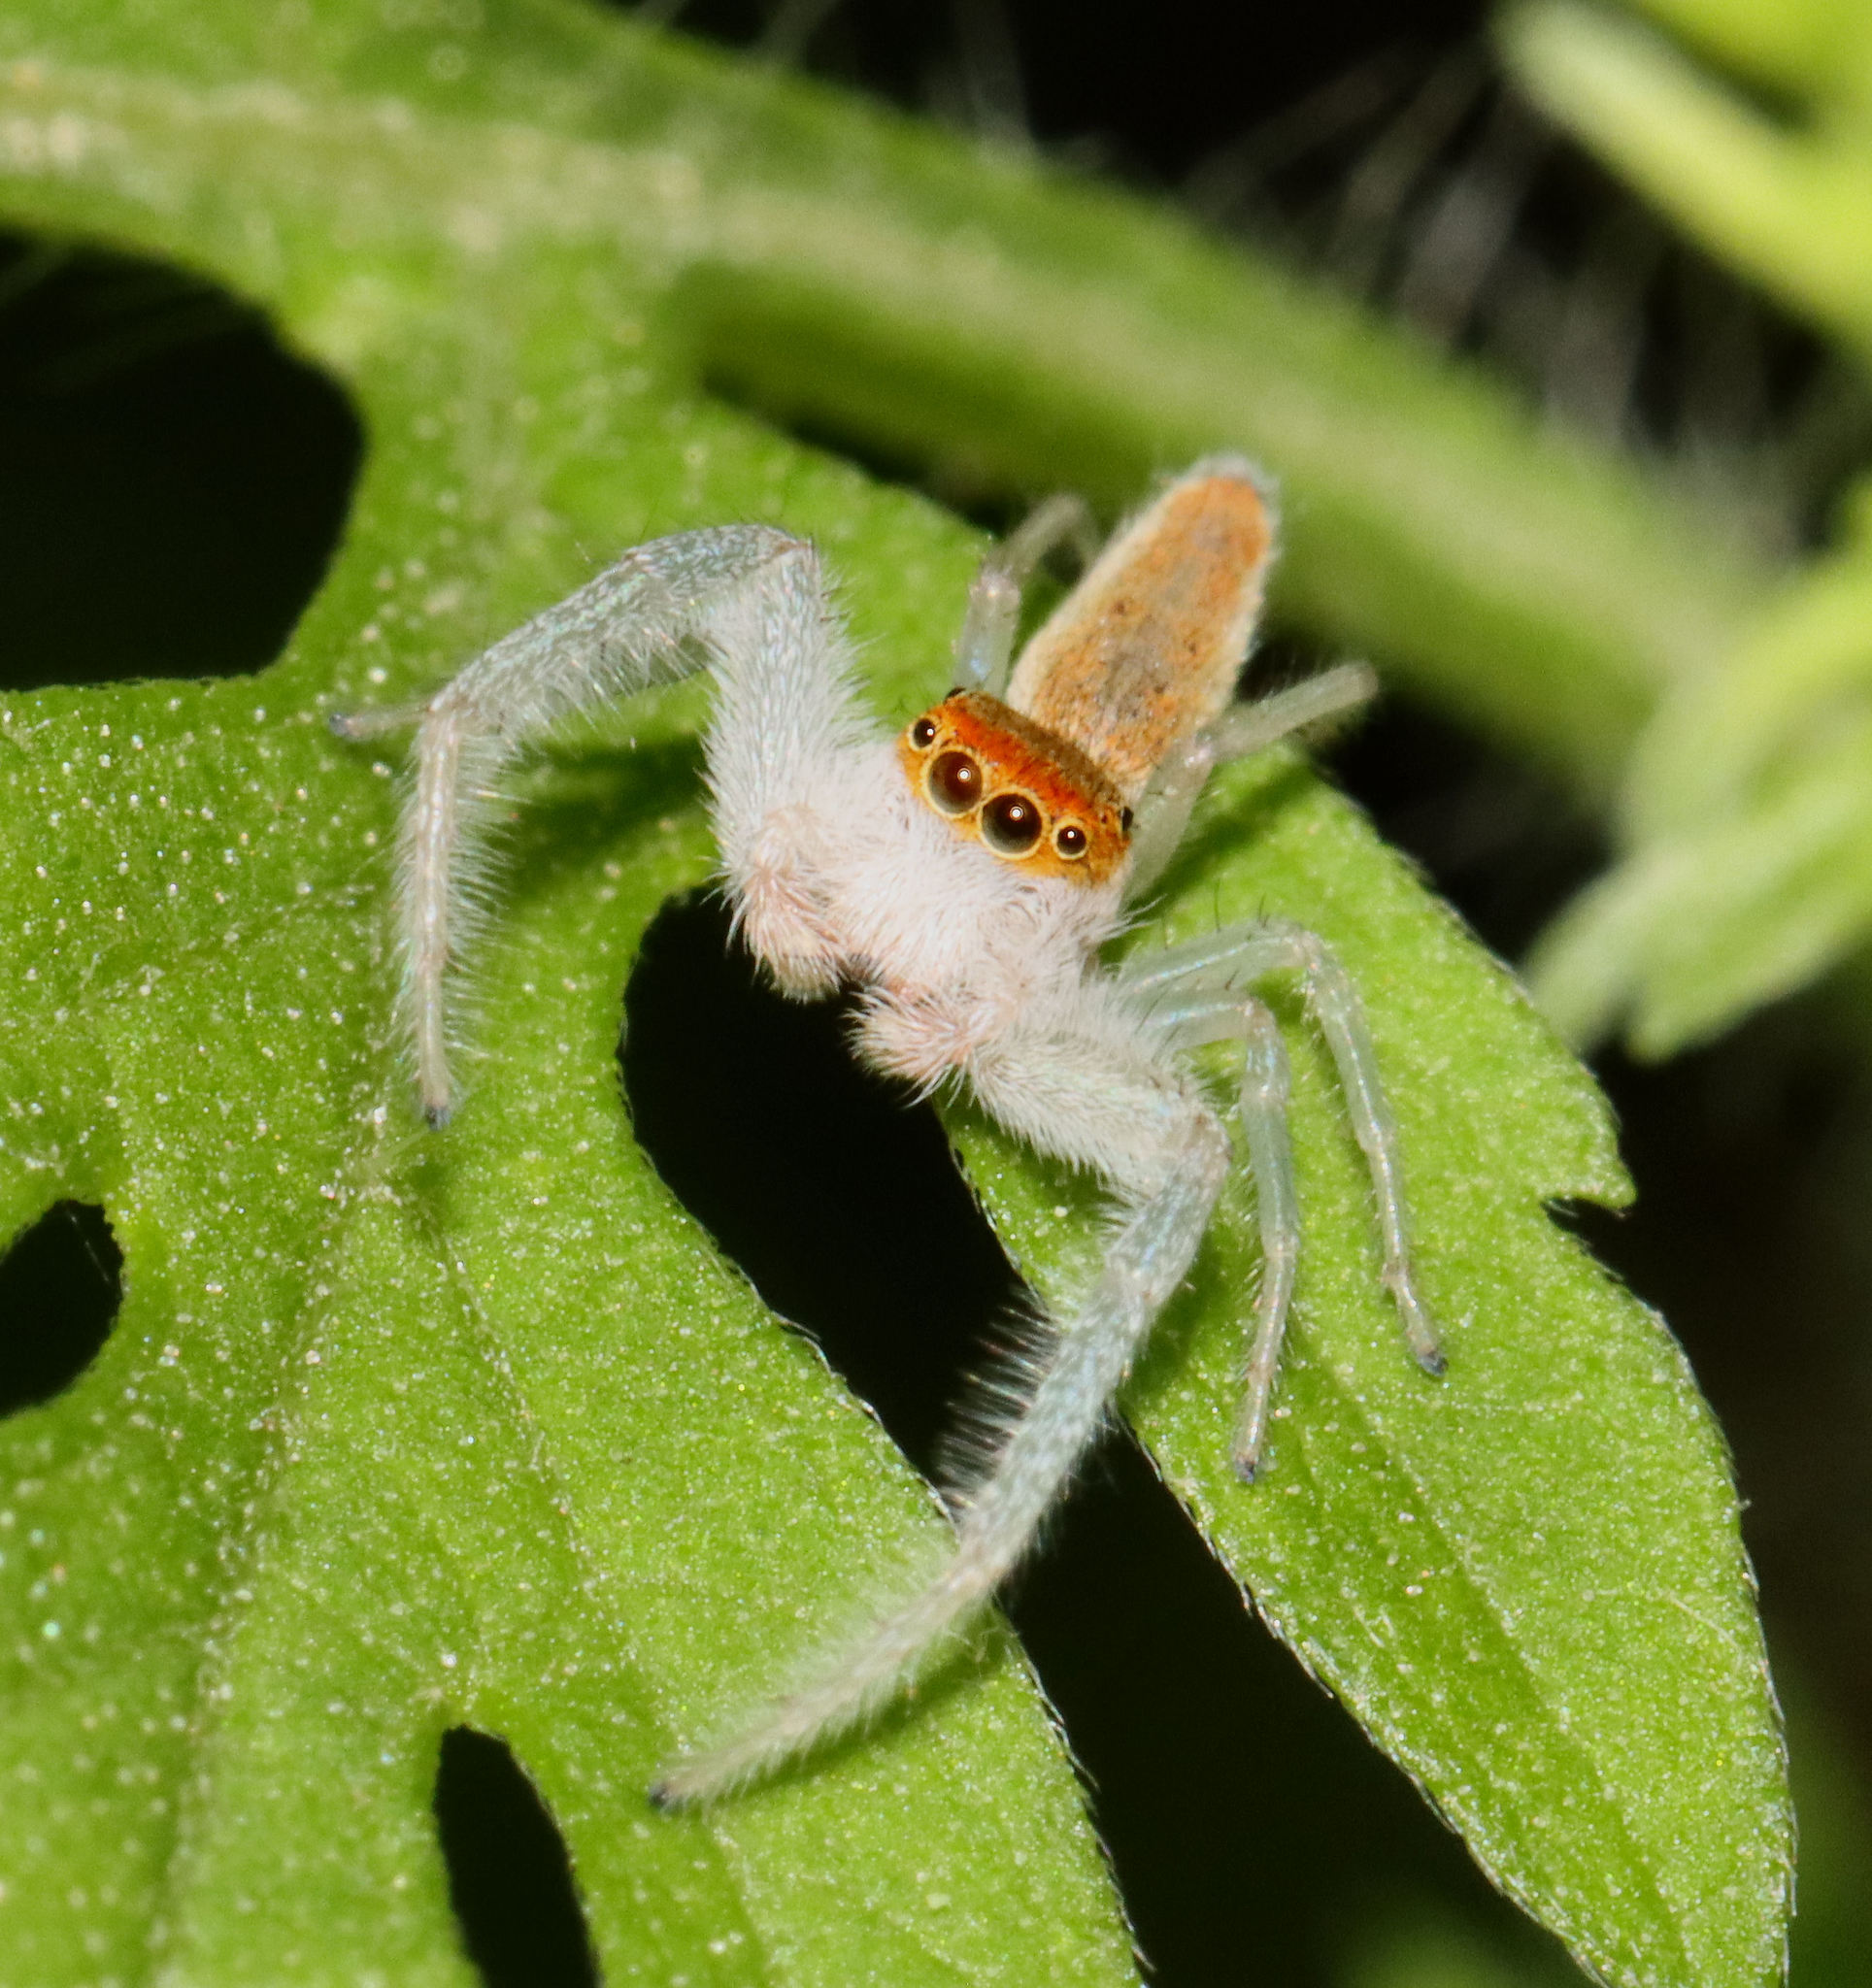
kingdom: Animalia
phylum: Arthropoda
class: Arachnida
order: Araneae
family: Salticidae
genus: Hentzia
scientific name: Hentzia mitrata
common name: White-jawed jumping spider
